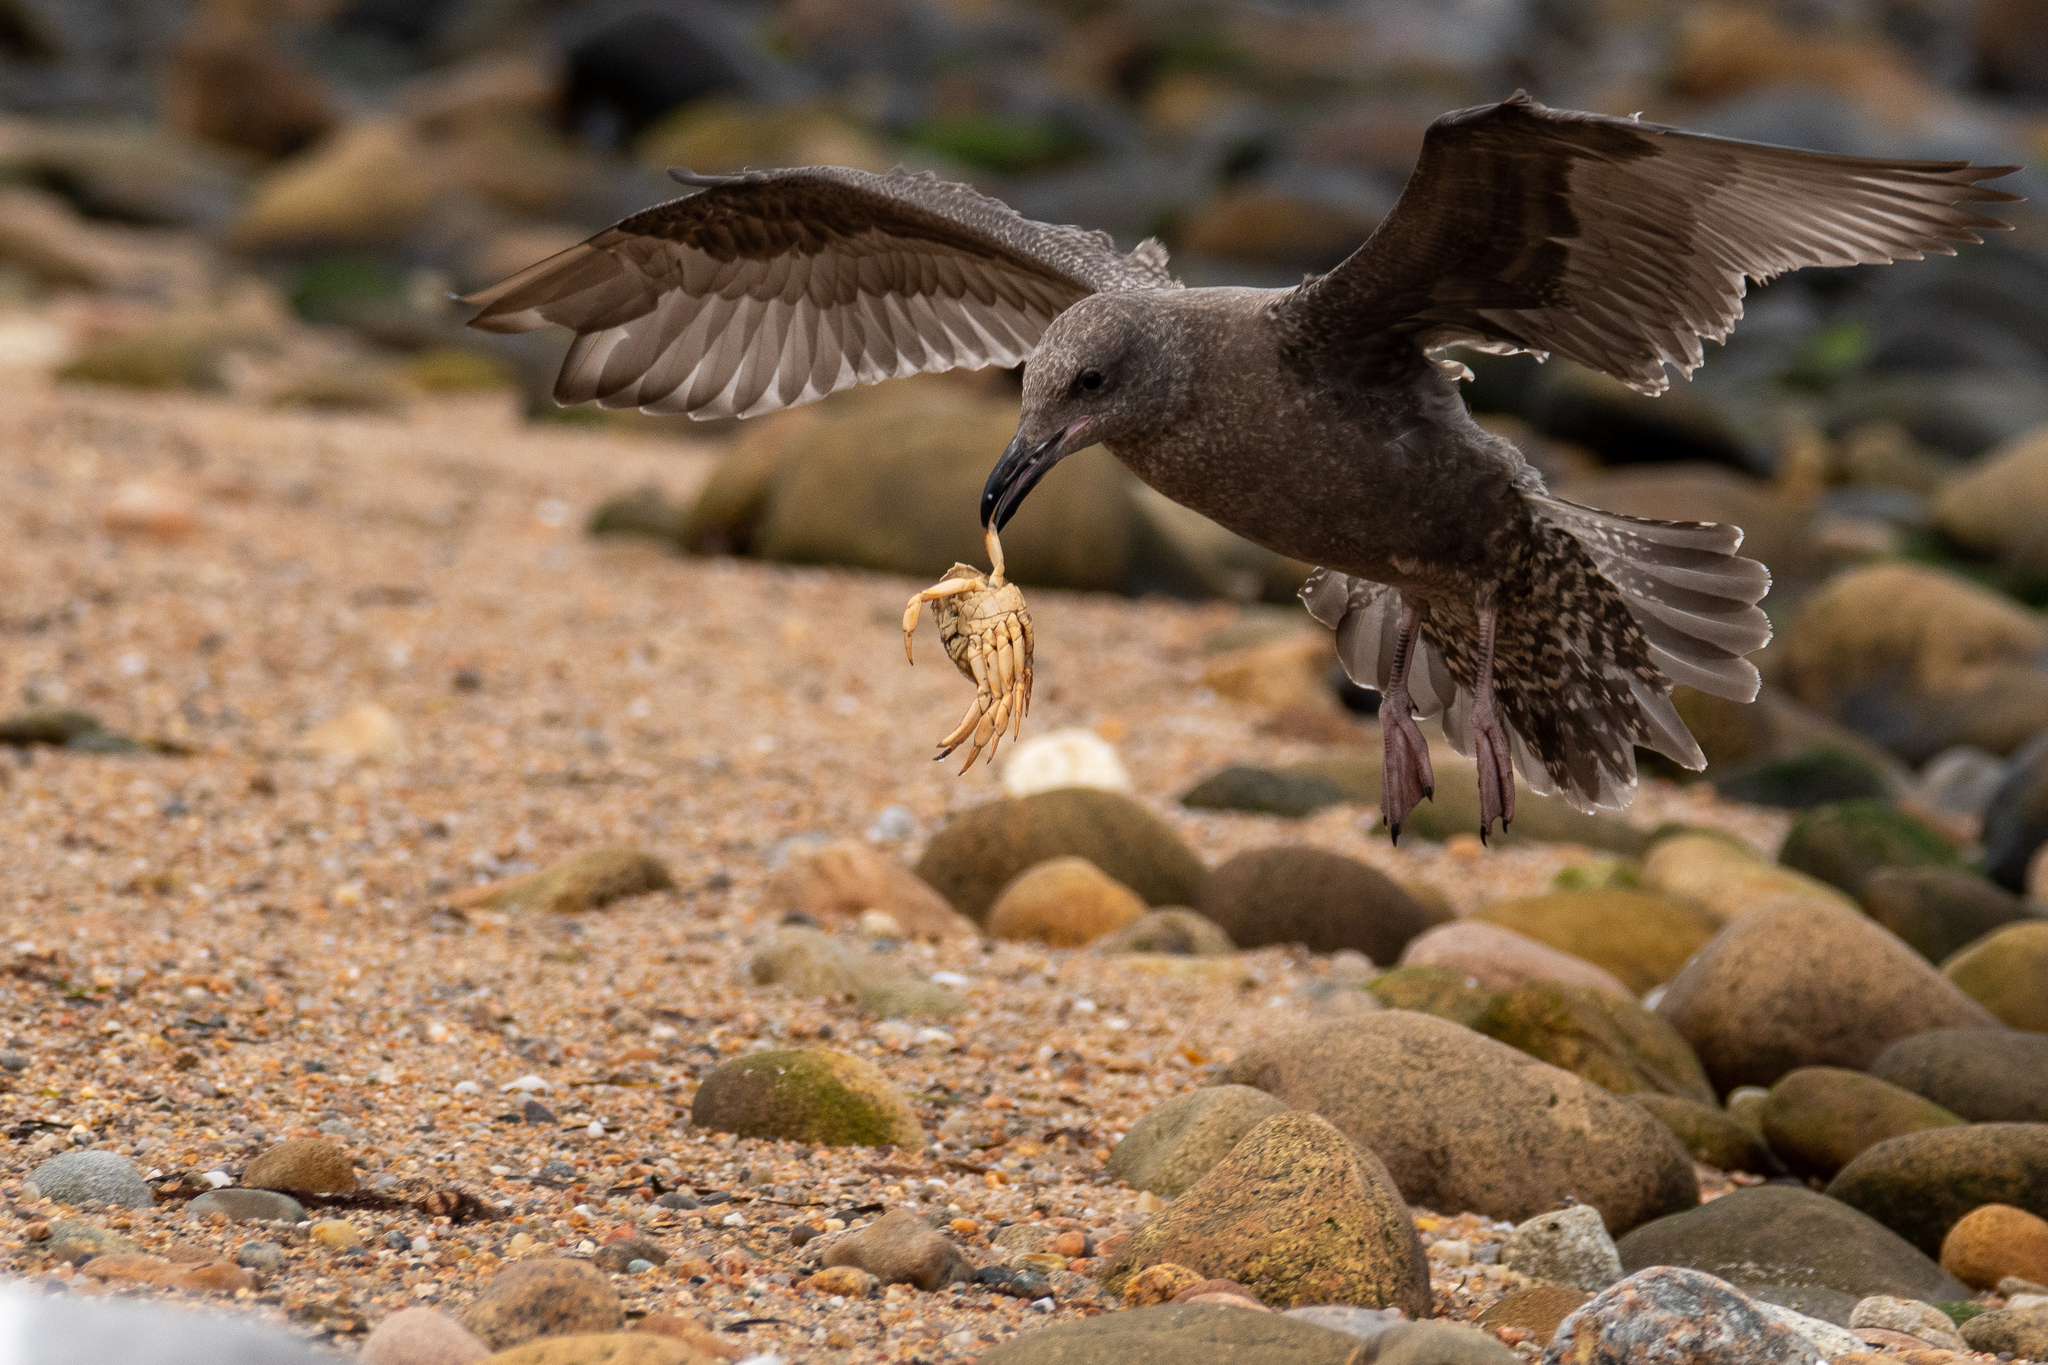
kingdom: Animalia
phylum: Arthropoda
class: Malacostraca
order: Decapoda
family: Cancridae
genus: Cancer
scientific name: Cancer irroratus
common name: Atlantic rock crab
